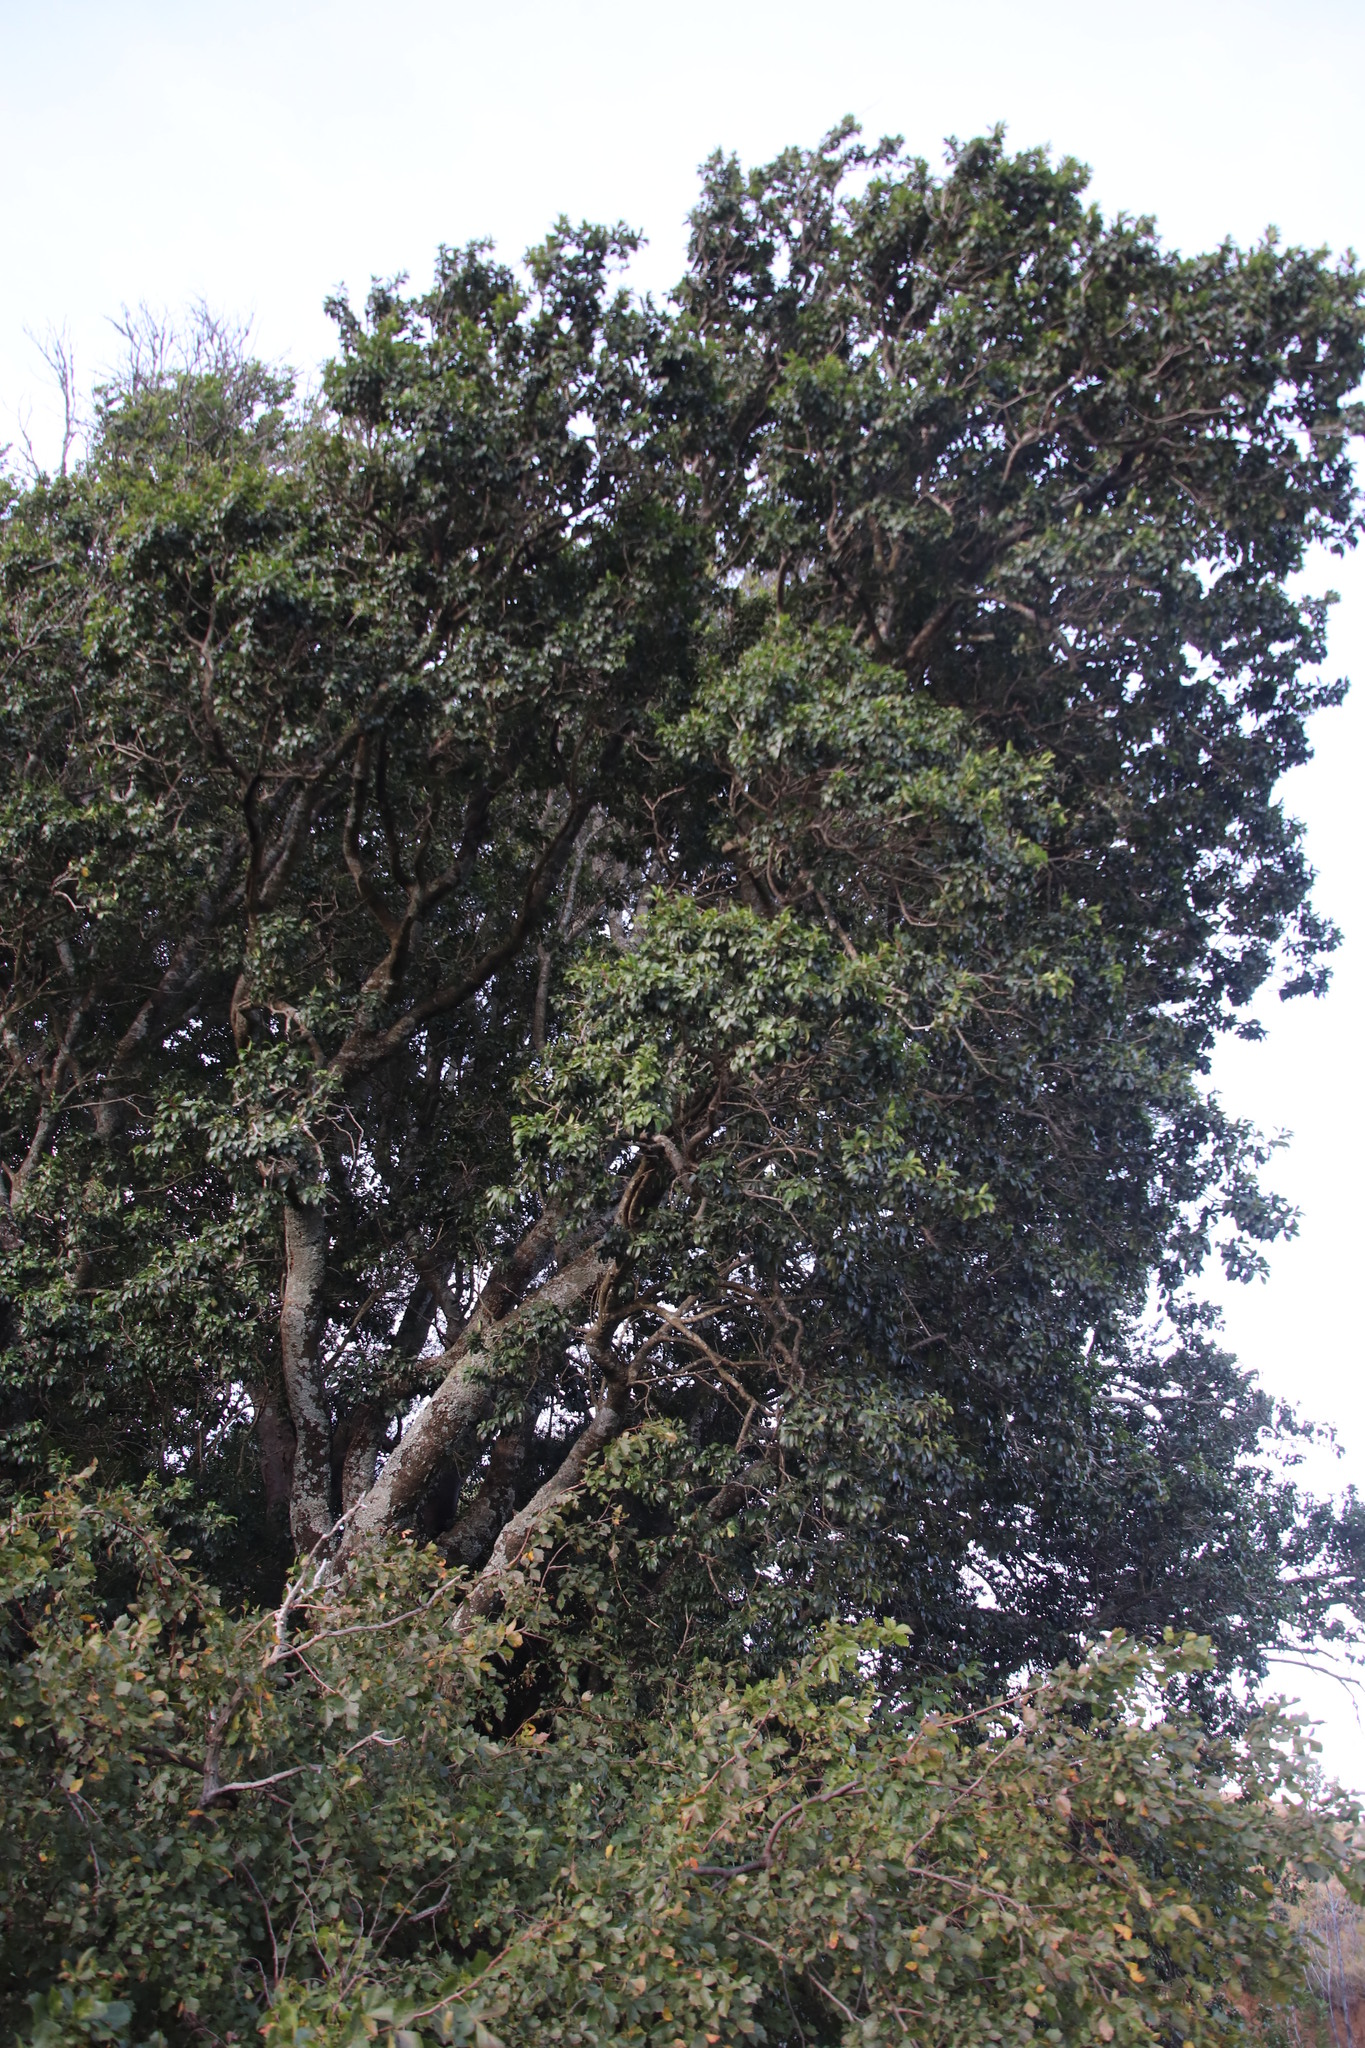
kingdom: Plantae
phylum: Tracheophyta
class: Magnoliopsida
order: Aquifoliales
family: Aquifoliaceae
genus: Ilex
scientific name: Ilex mitis
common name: African holly
